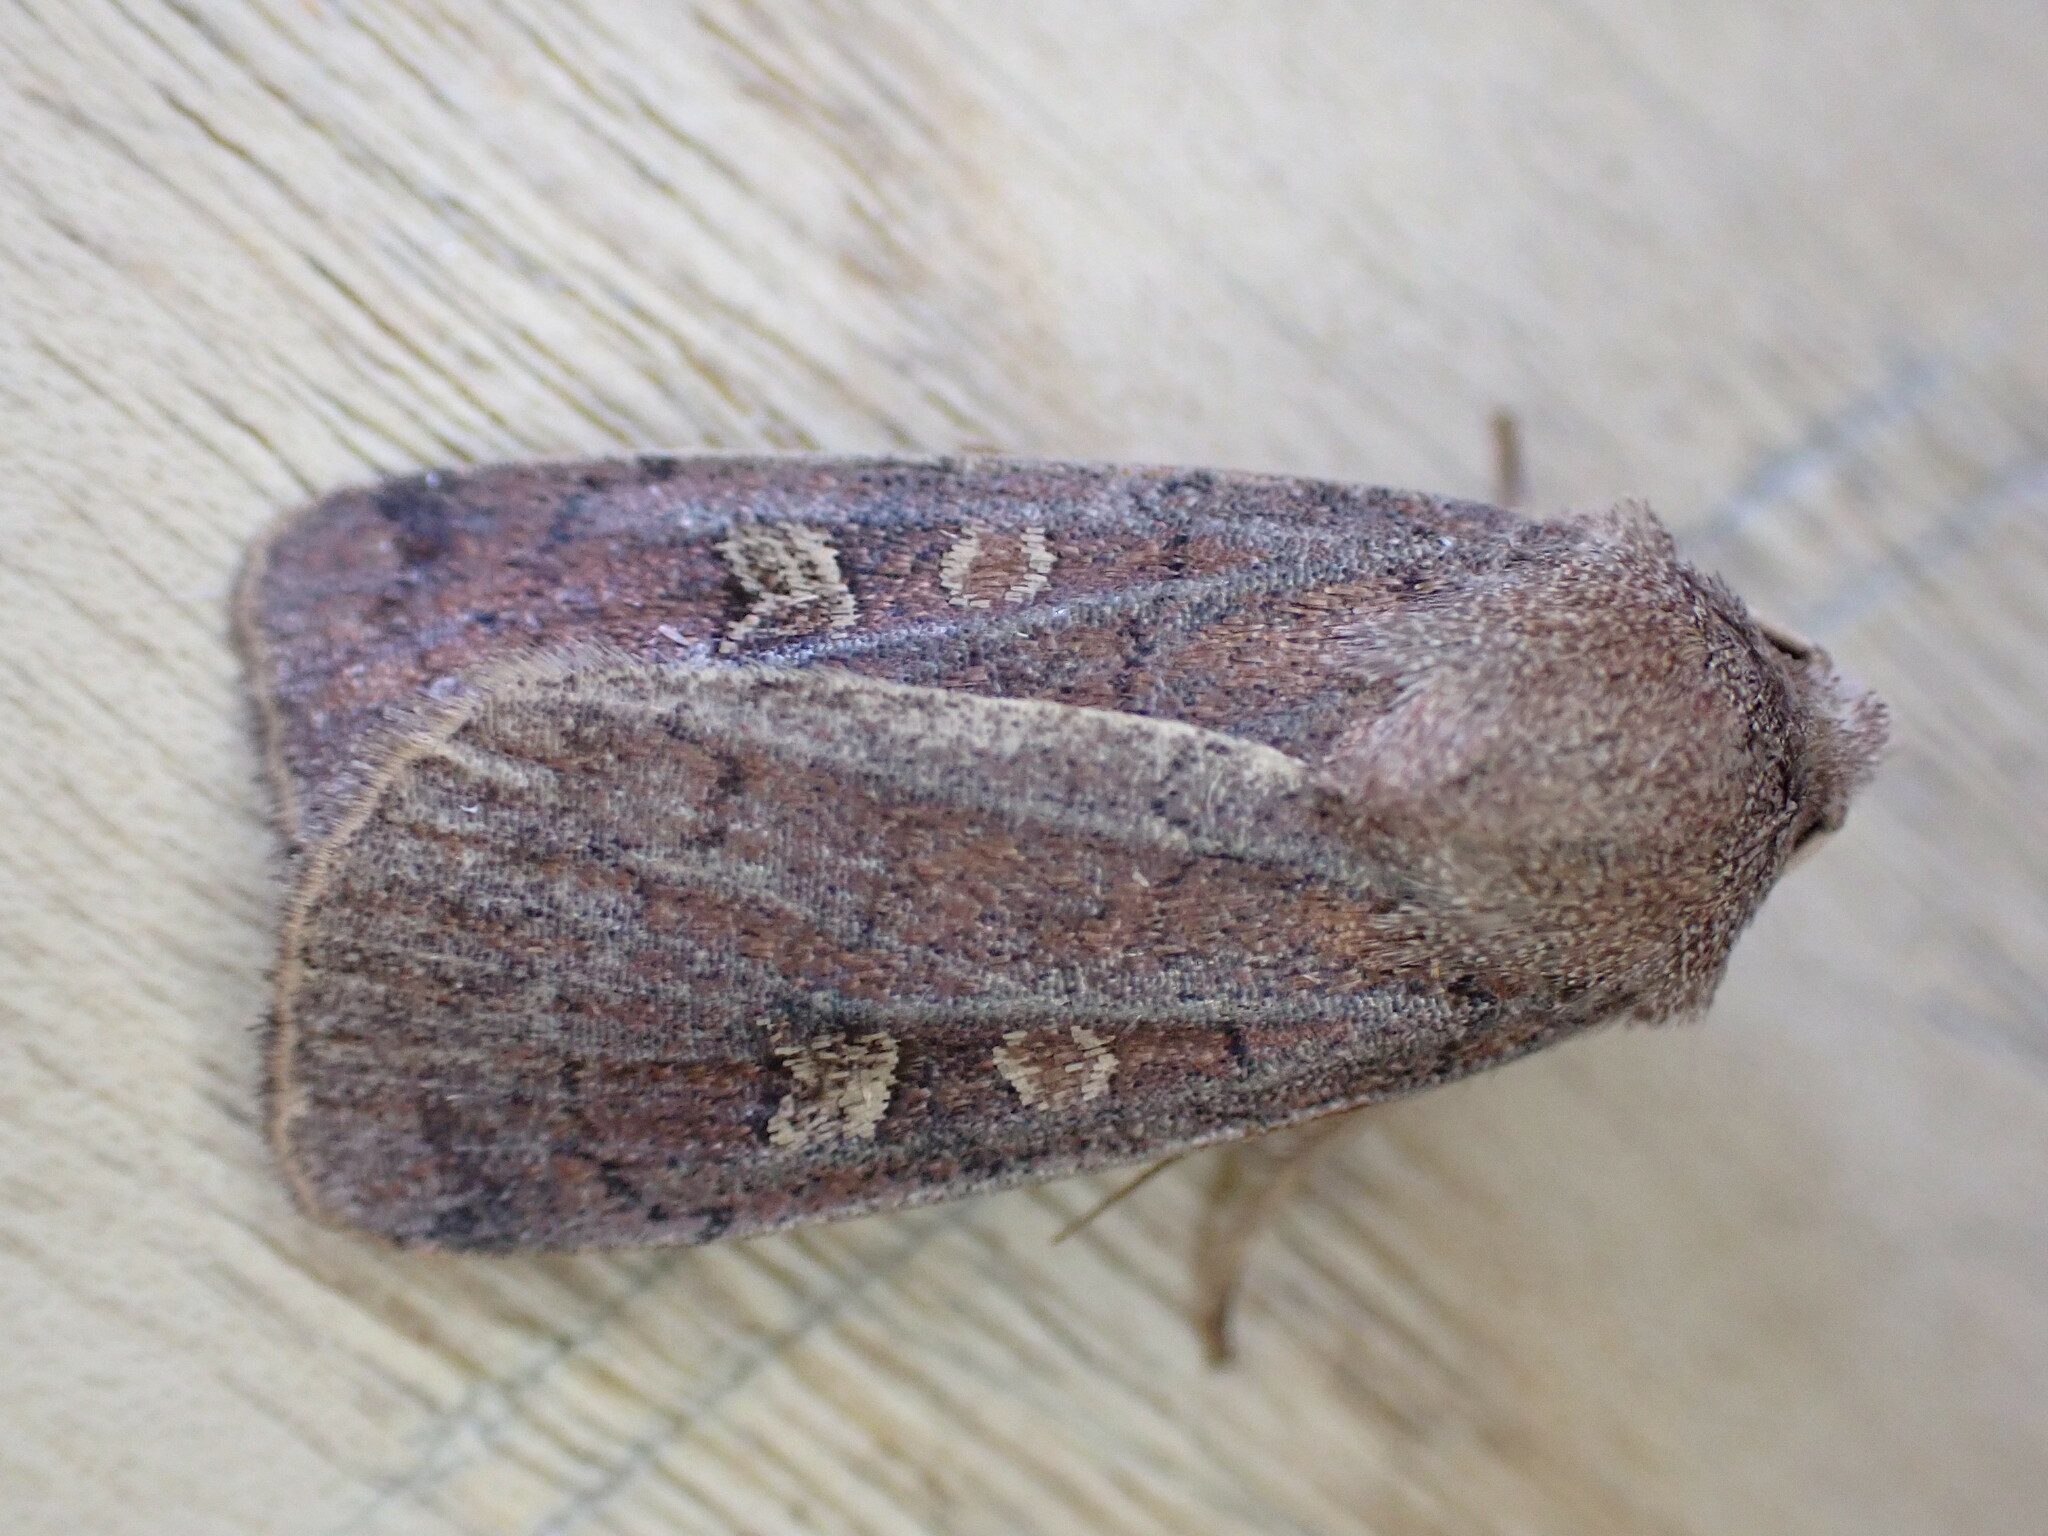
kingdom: Animalia
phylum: Arthropoda
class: Insecta
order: Lepidoptera
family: Noctuidae
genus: Xestia
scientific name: Xestia xanthographa
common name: Square-spot rustic
